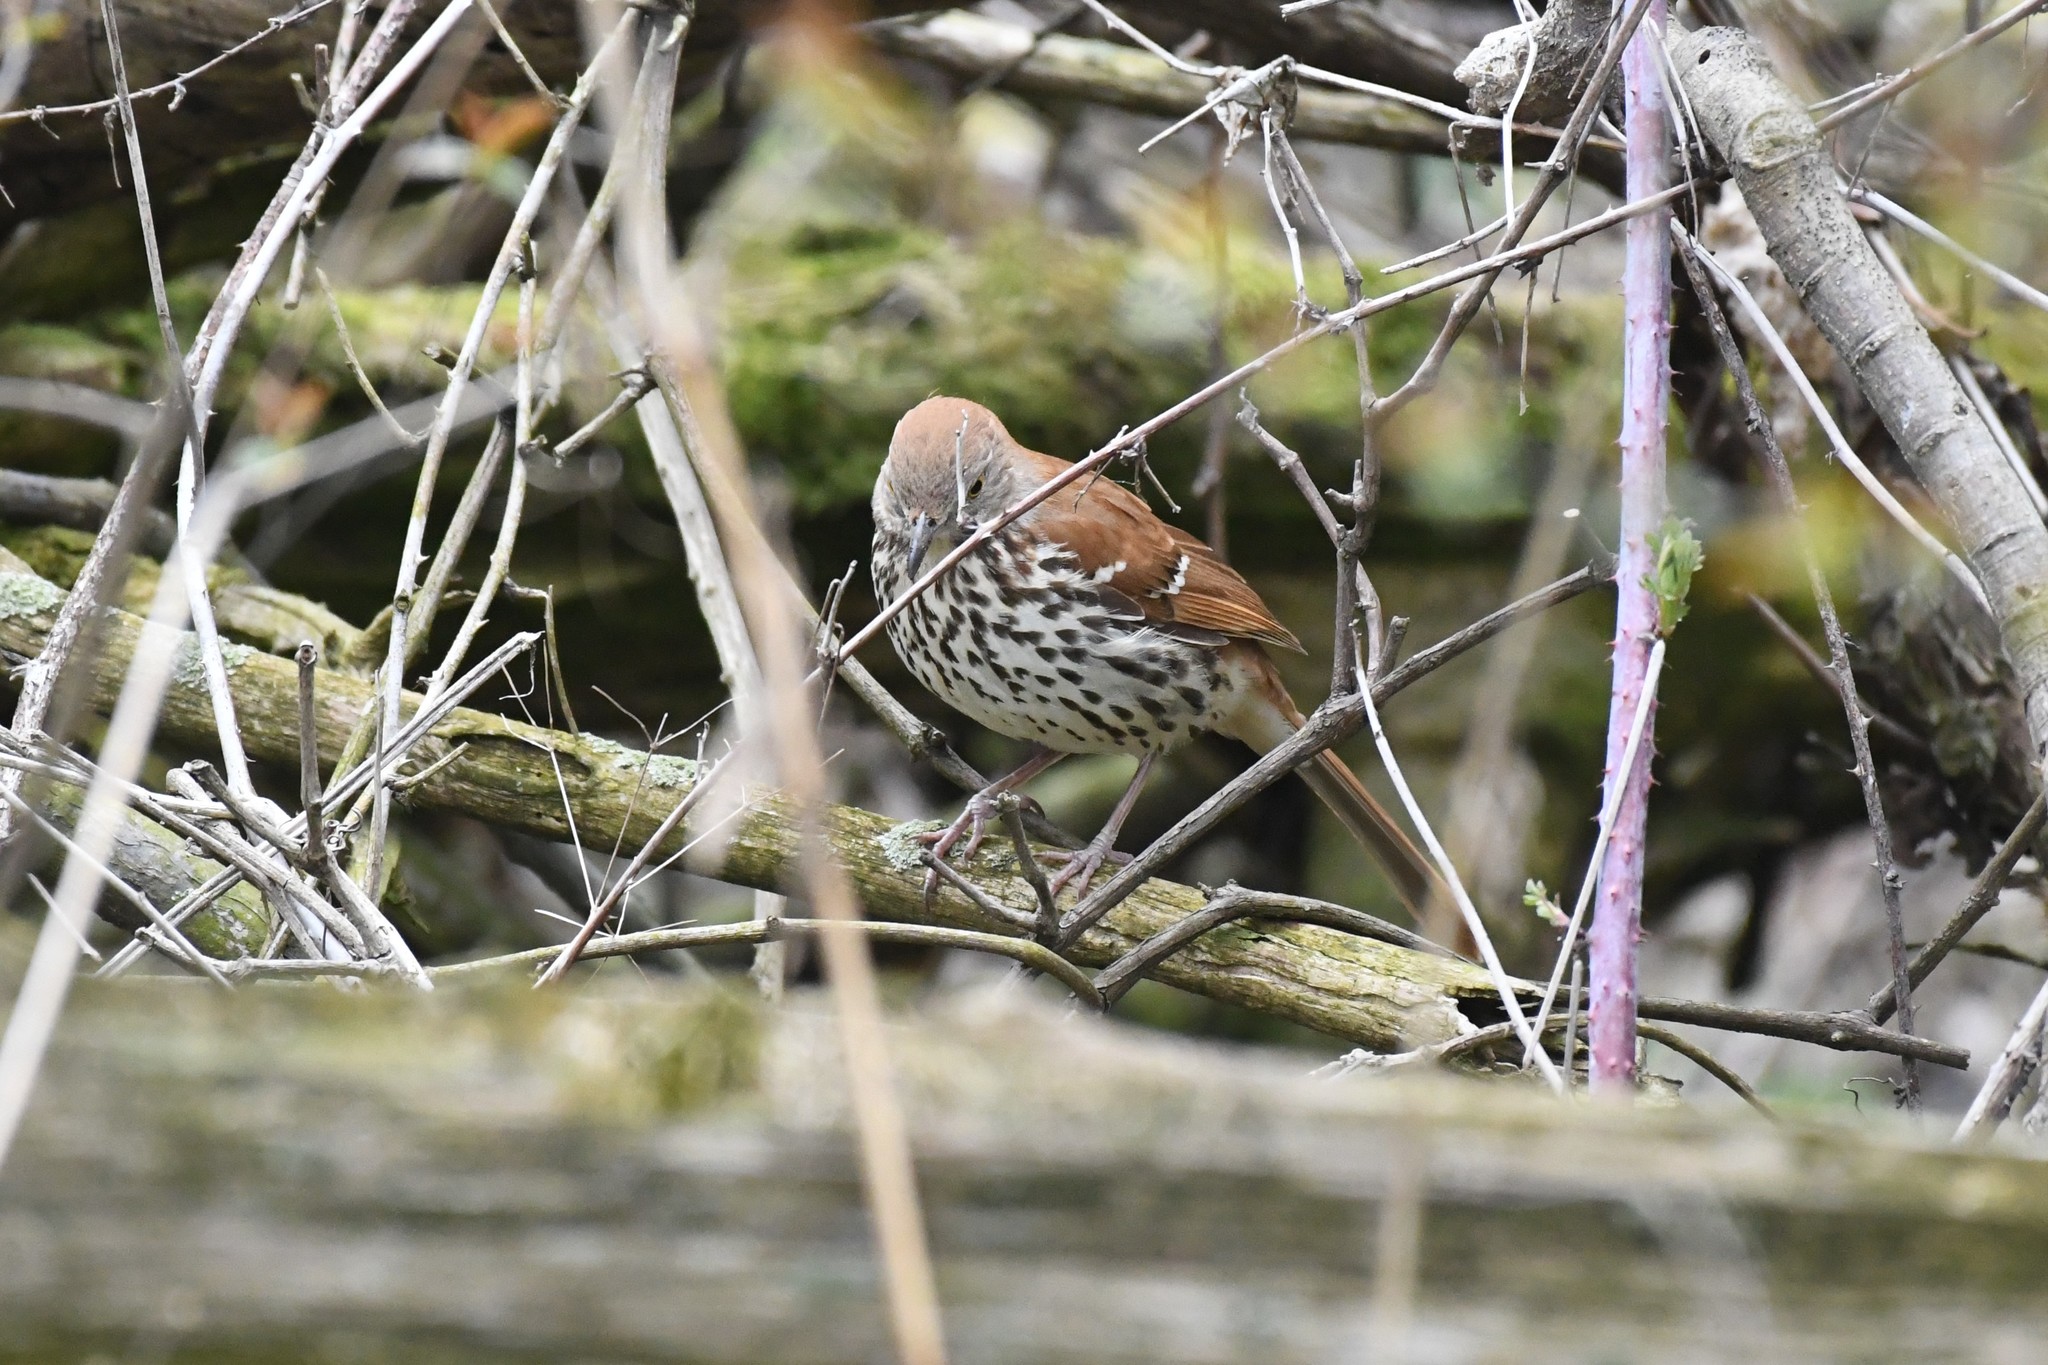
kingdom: Animalia
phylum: Chordata
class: Aves
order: Passeriformes
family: Mimidae
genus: Toxostoma
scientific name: Toxostoma rufum
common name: Brown thrasher
